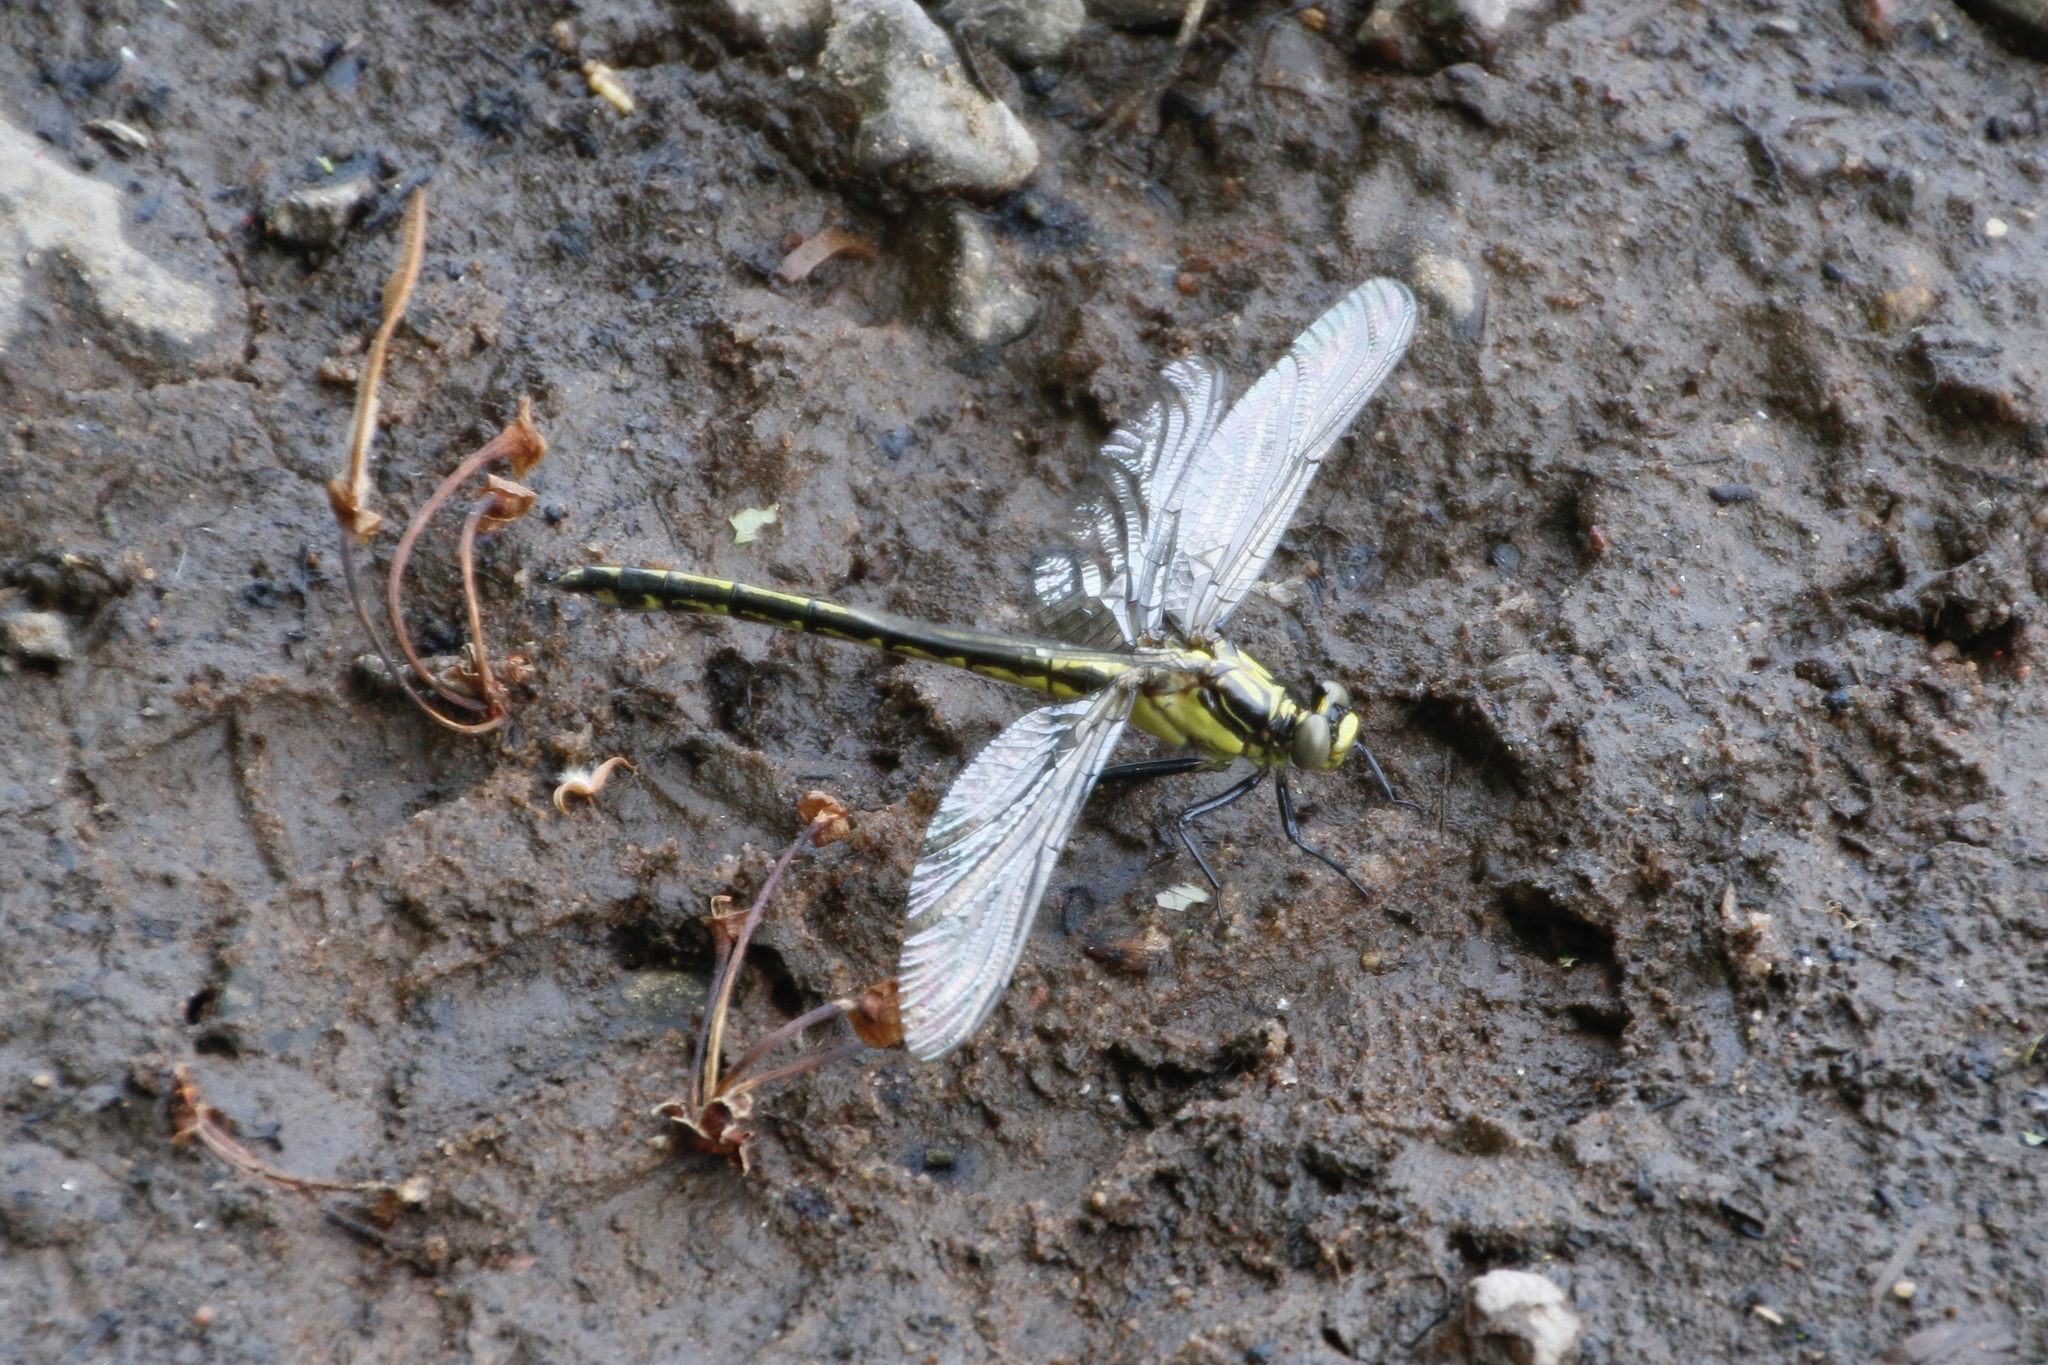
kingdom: Animalia
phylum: Arthropoda
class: Insecta
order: Odonata
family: Gomphidae
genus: Dromogomphus
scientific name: Dromogomphus spinosus
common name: Black-shouldered spinyleg
